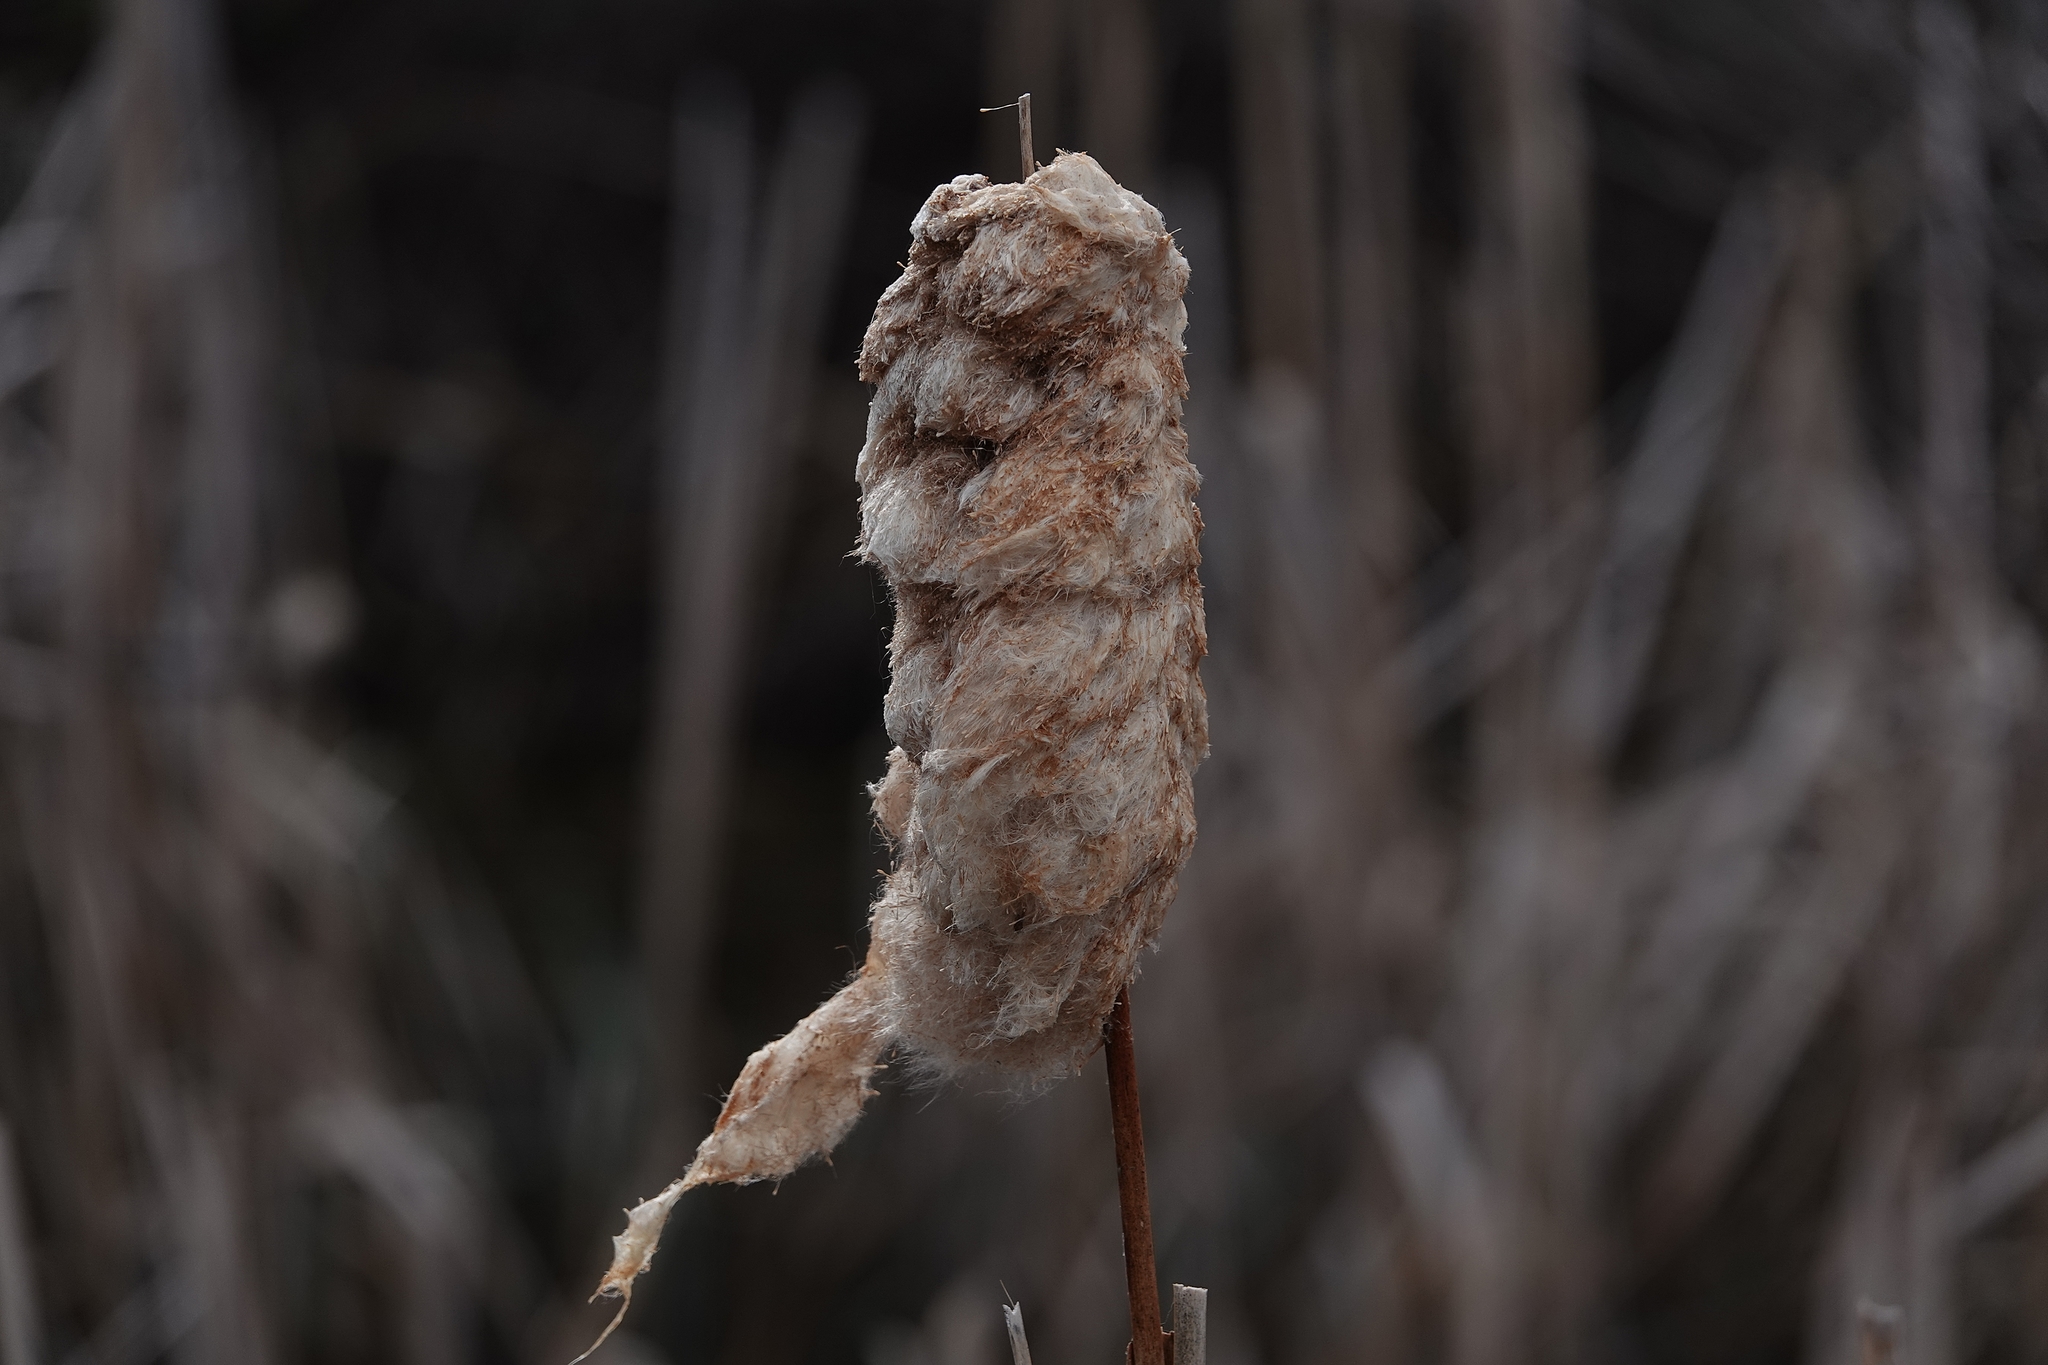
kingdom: Plantae
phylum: Tracheophyta
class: Liliopsida
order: Poales
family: Typhaceae
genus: Typha
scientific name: Typha latifolia
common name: Broadleaf cattail
